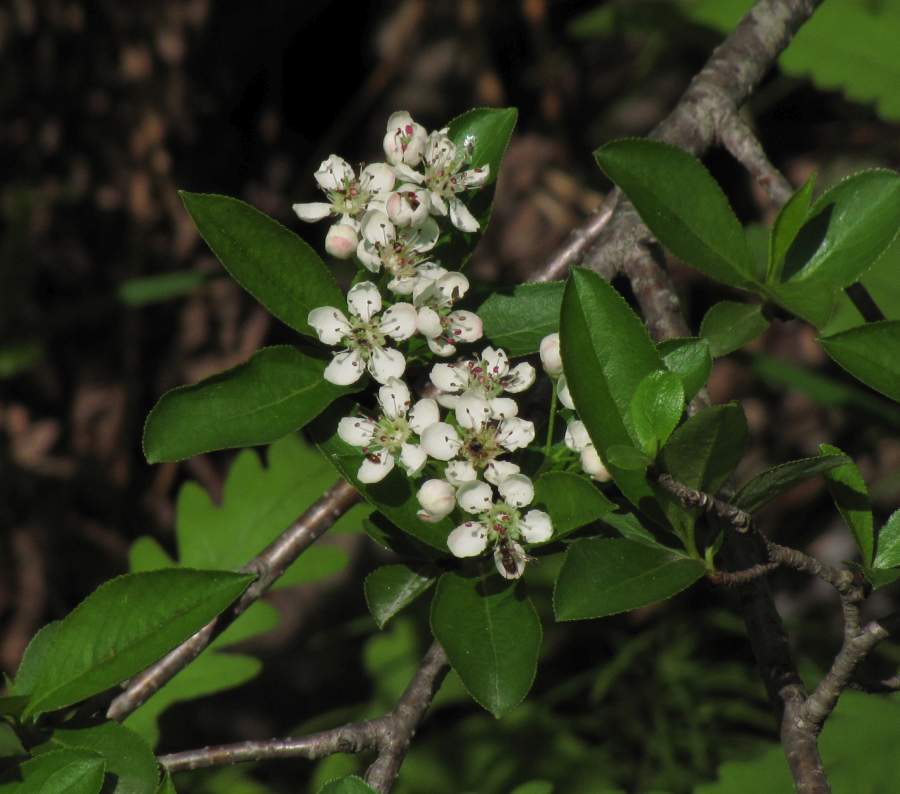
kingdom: Plantae
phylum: Tracheophyta
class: Magnoliopsida
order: Rosales
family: Rosaceae
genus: Aronia
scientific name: Aronia melanocarpa
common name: Black chokeberry
